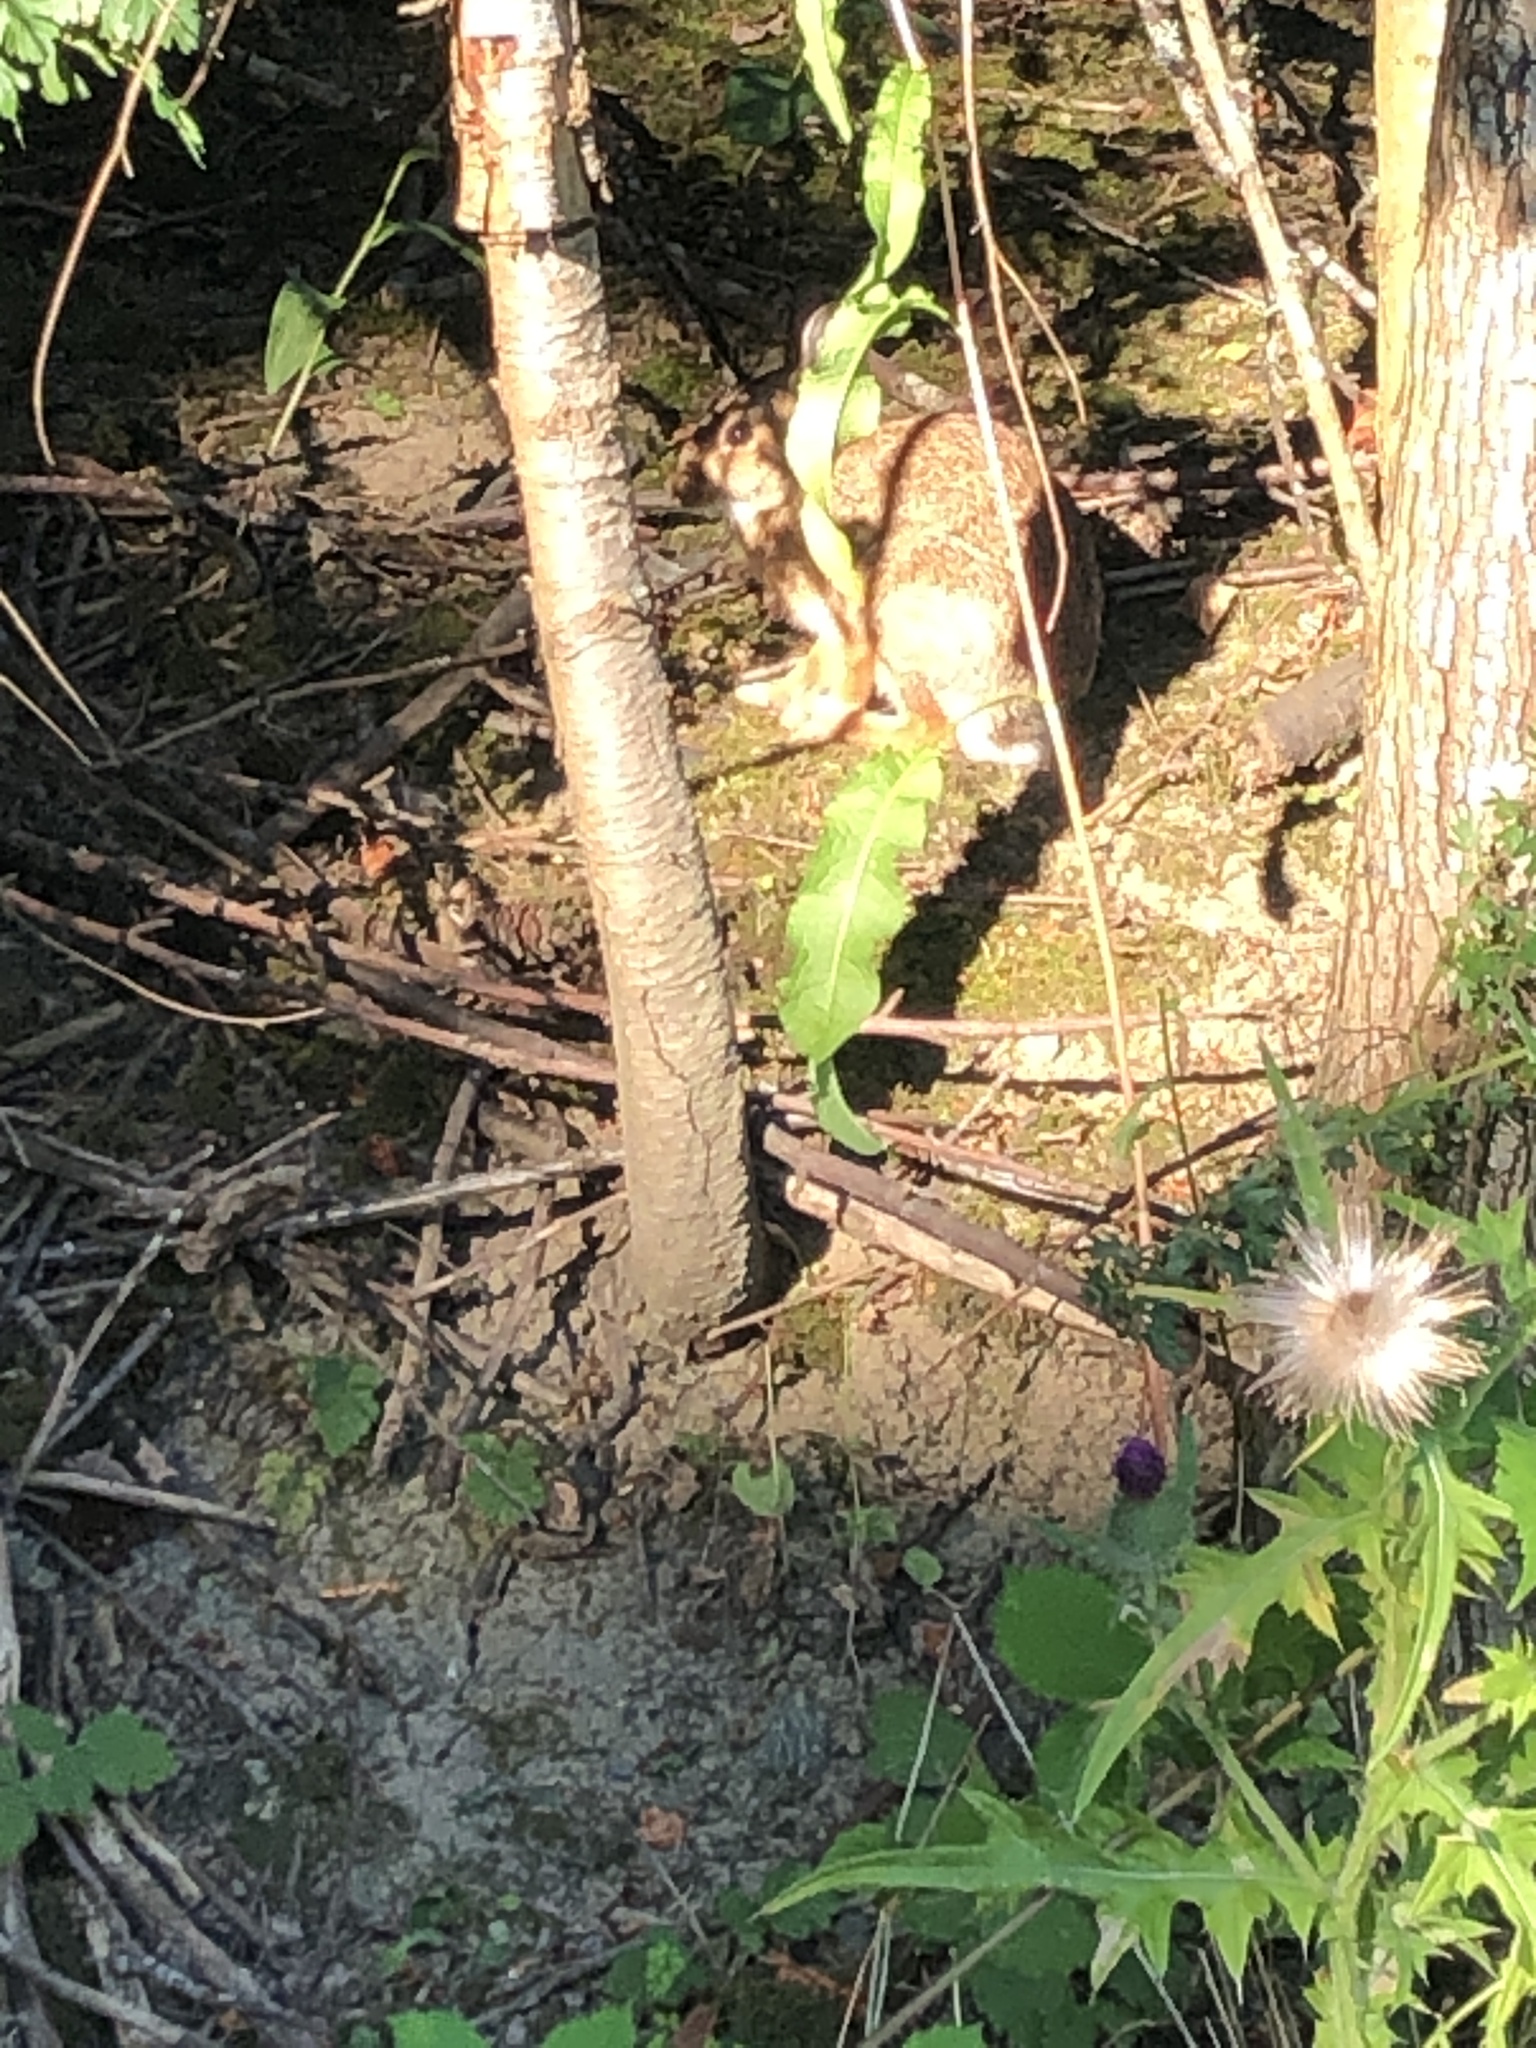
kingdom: Animalia
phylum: Chordata
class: Mammalia
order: Lagomorpha
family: Leporidae
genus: Sylvilagus
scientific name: Sylvilagus floridanus
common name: Eastern cottontail
